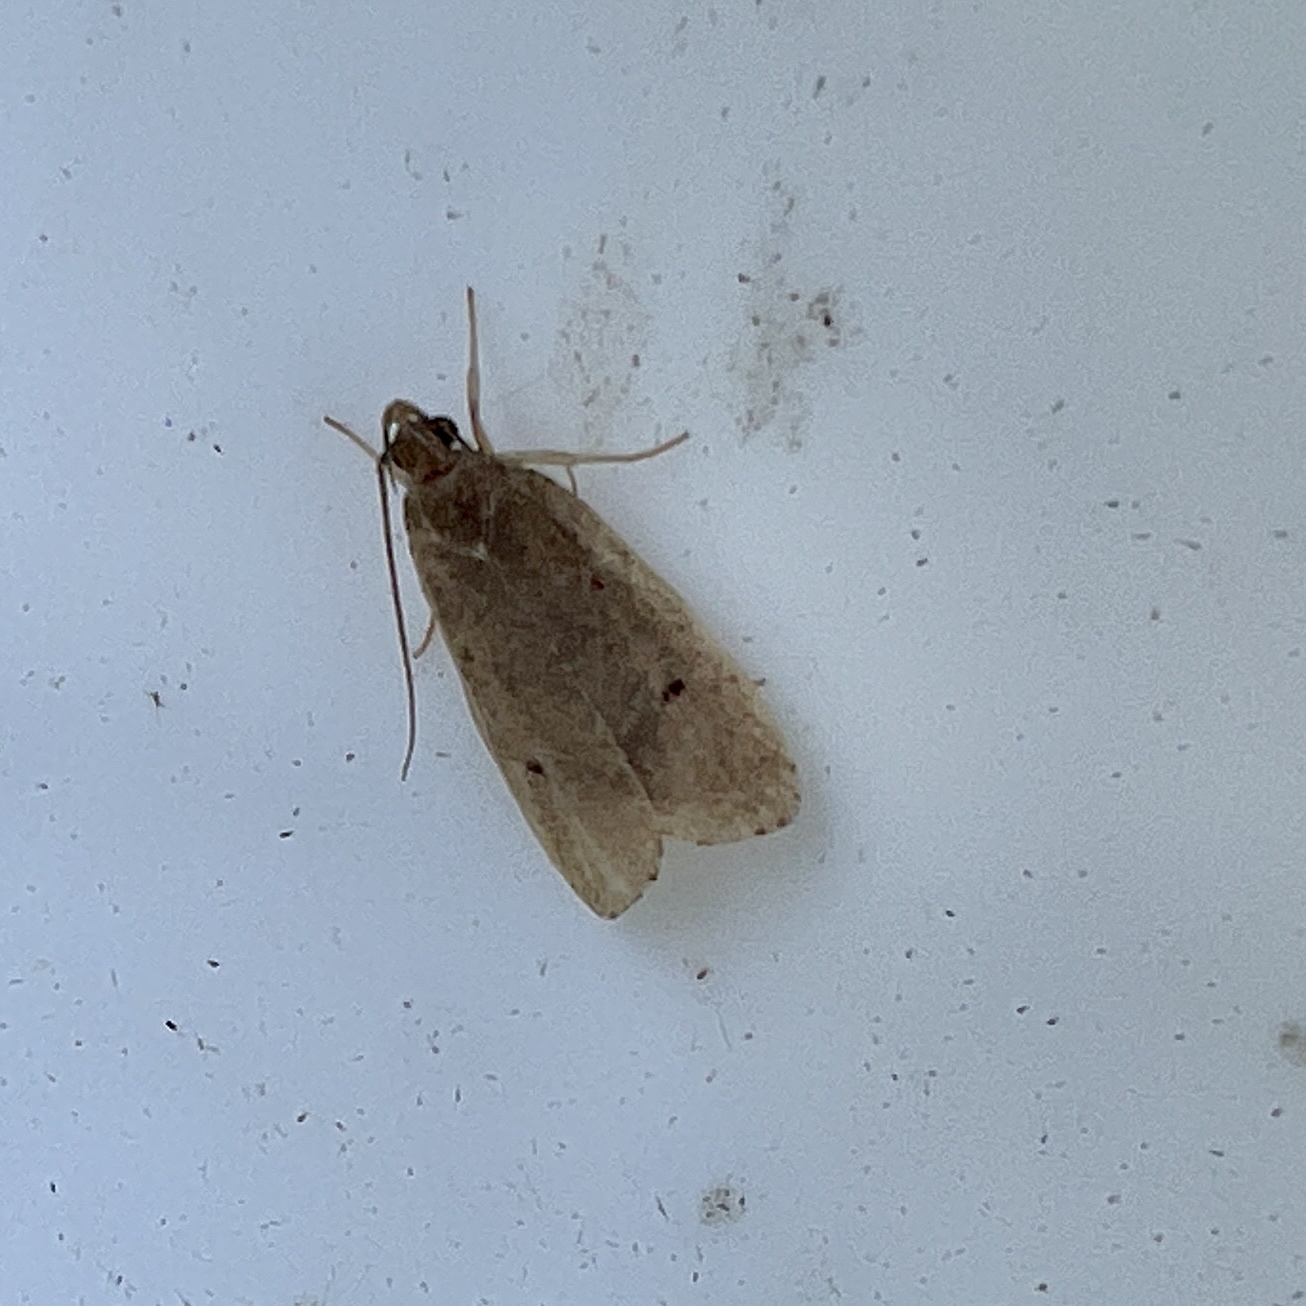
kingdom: Animalia
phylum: Arthropoda
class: Insecta
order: Lepidoptera
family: Depressariidae
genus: Psilocorsis
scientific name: Psilocorsis reflexella
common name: Dotted leaftier moth
